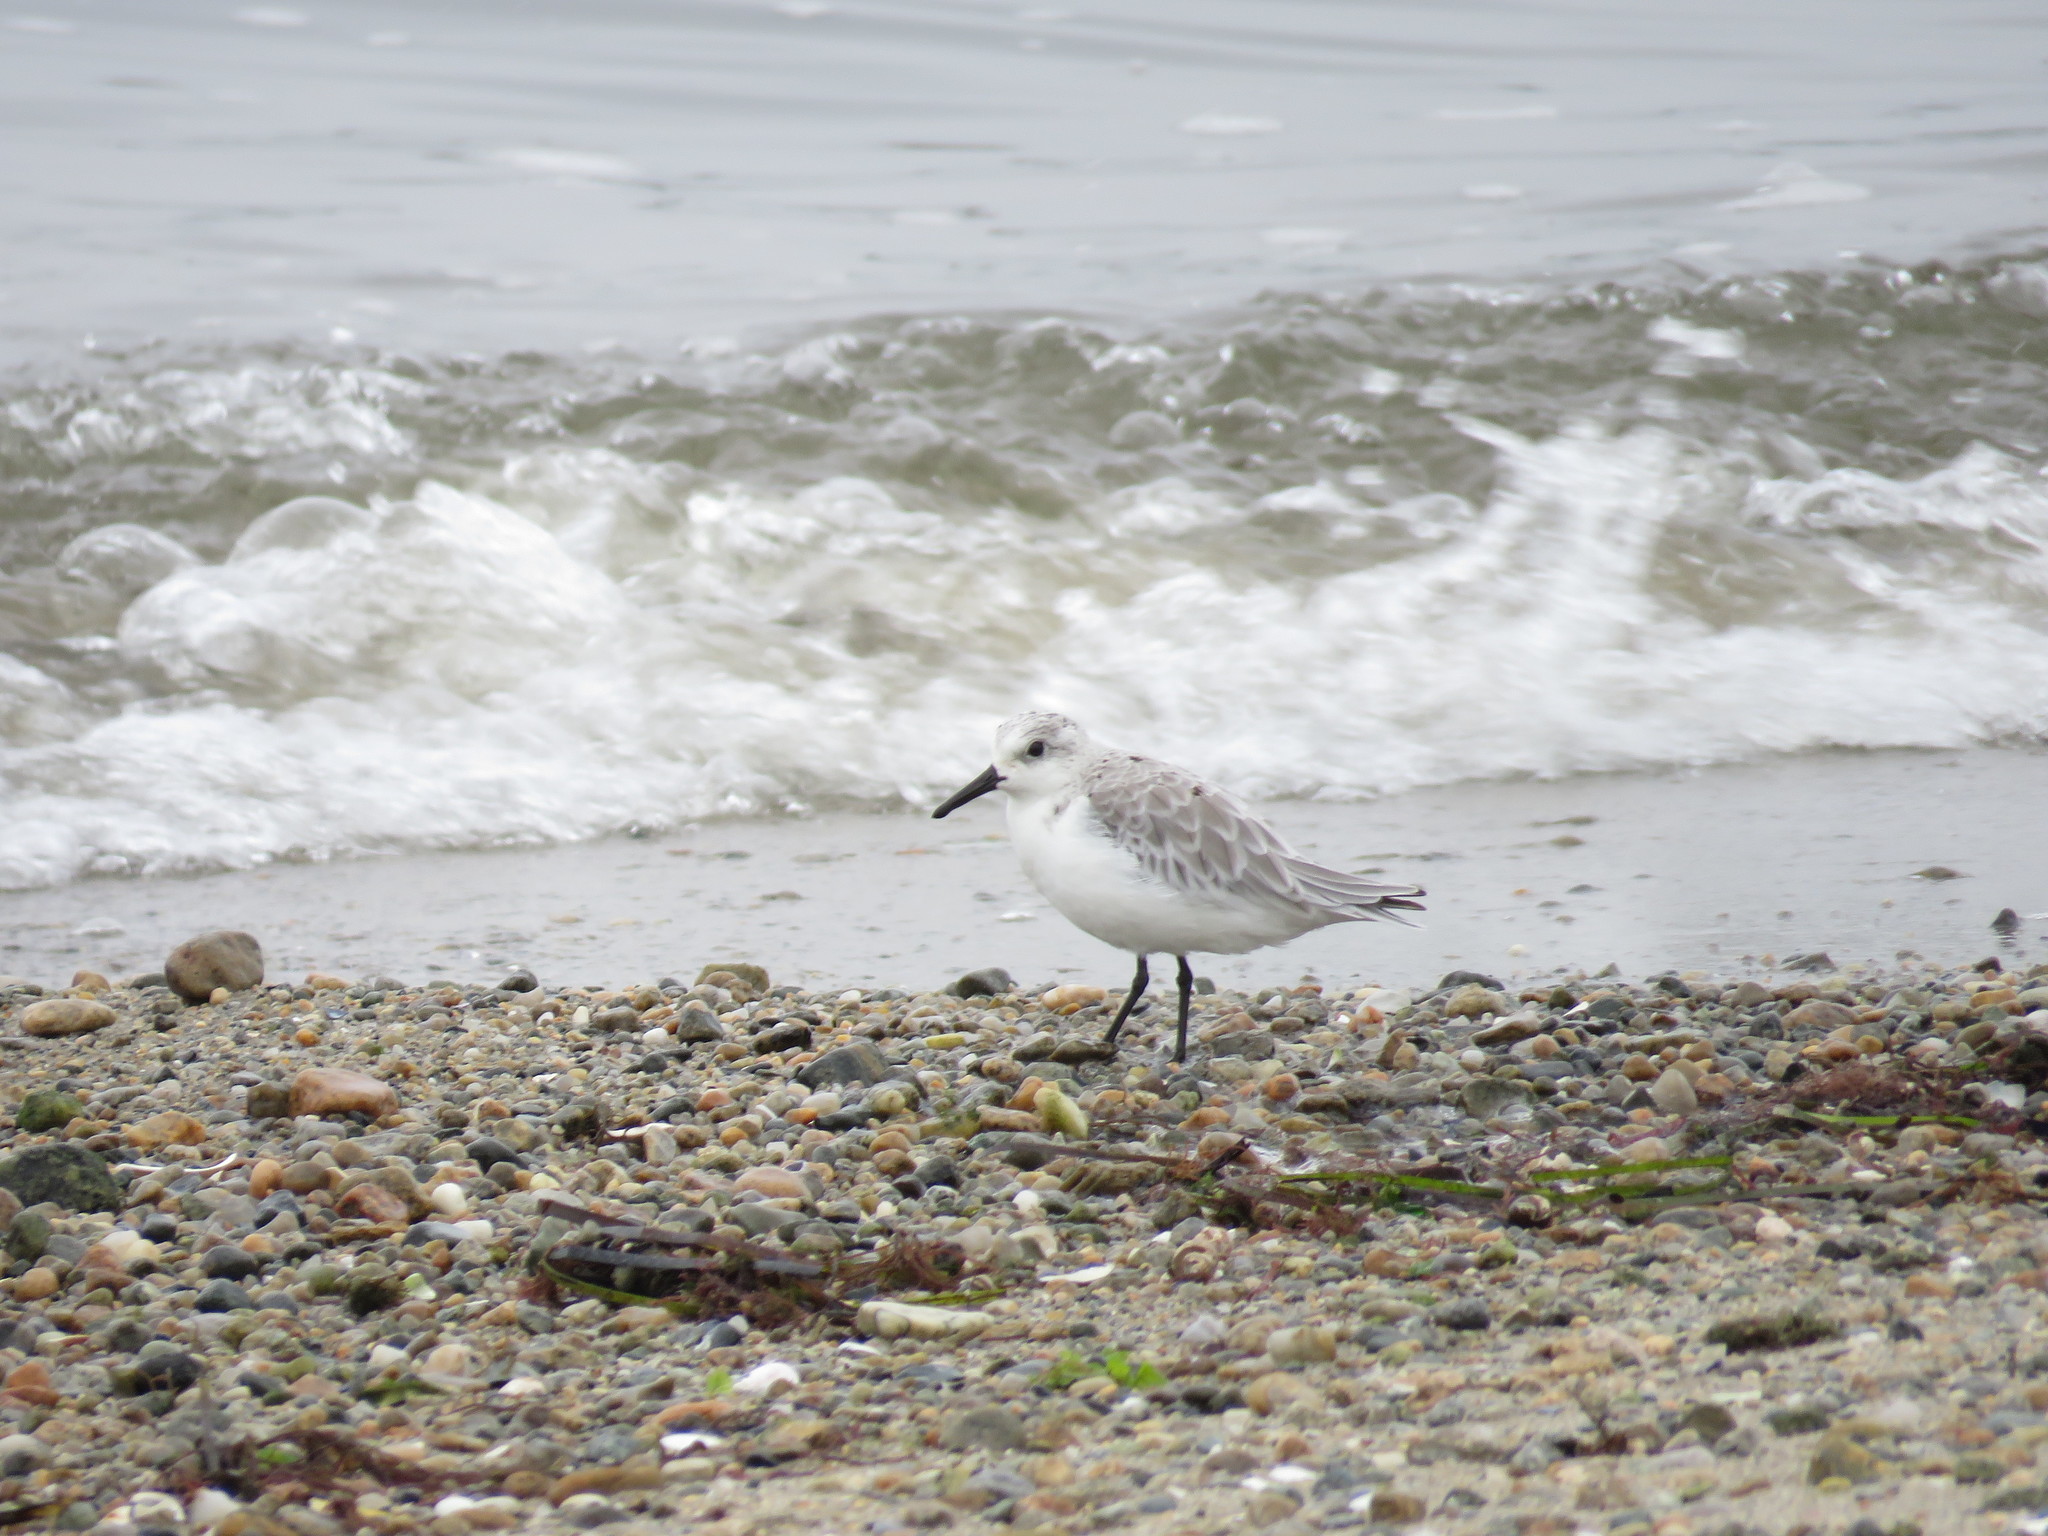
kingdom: Animalia
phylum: Chordata
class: Aves
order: Charadriiformes
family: Scolopacidae
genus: Calidris
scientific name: Calidris alba
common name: Sanderling
